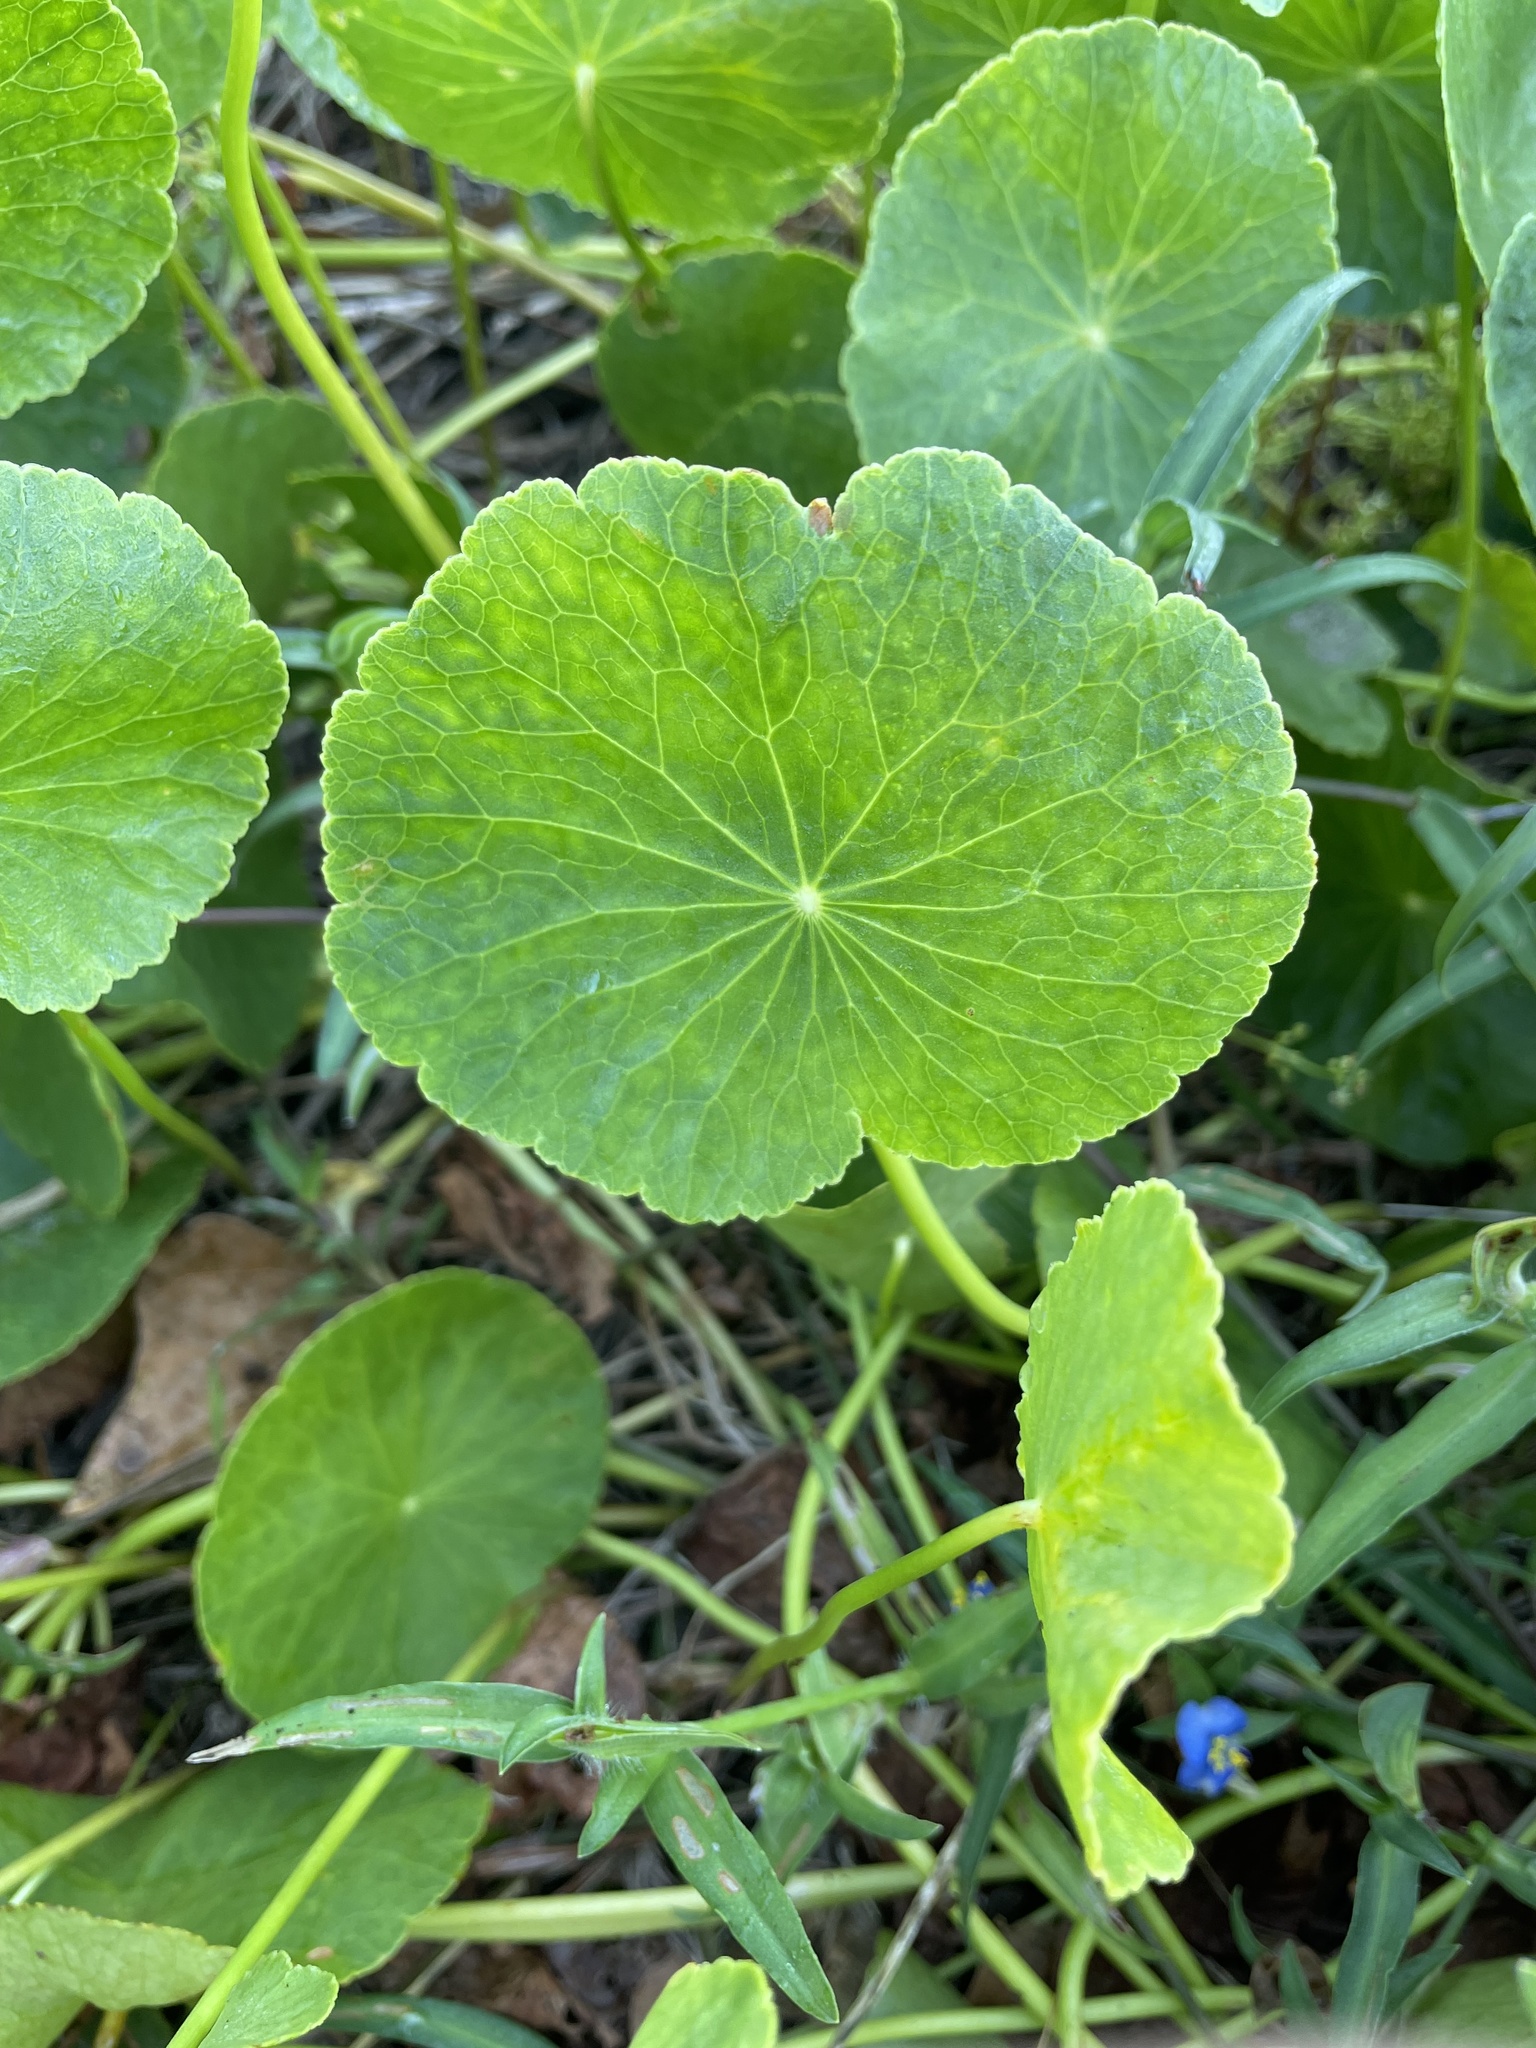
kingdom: Plantae
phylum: Tracheophyta
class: Magnoliopsida
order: Apiales
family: Araliaceae
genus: Hydrocotyle
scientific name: Hydrocotyle bonariensis
